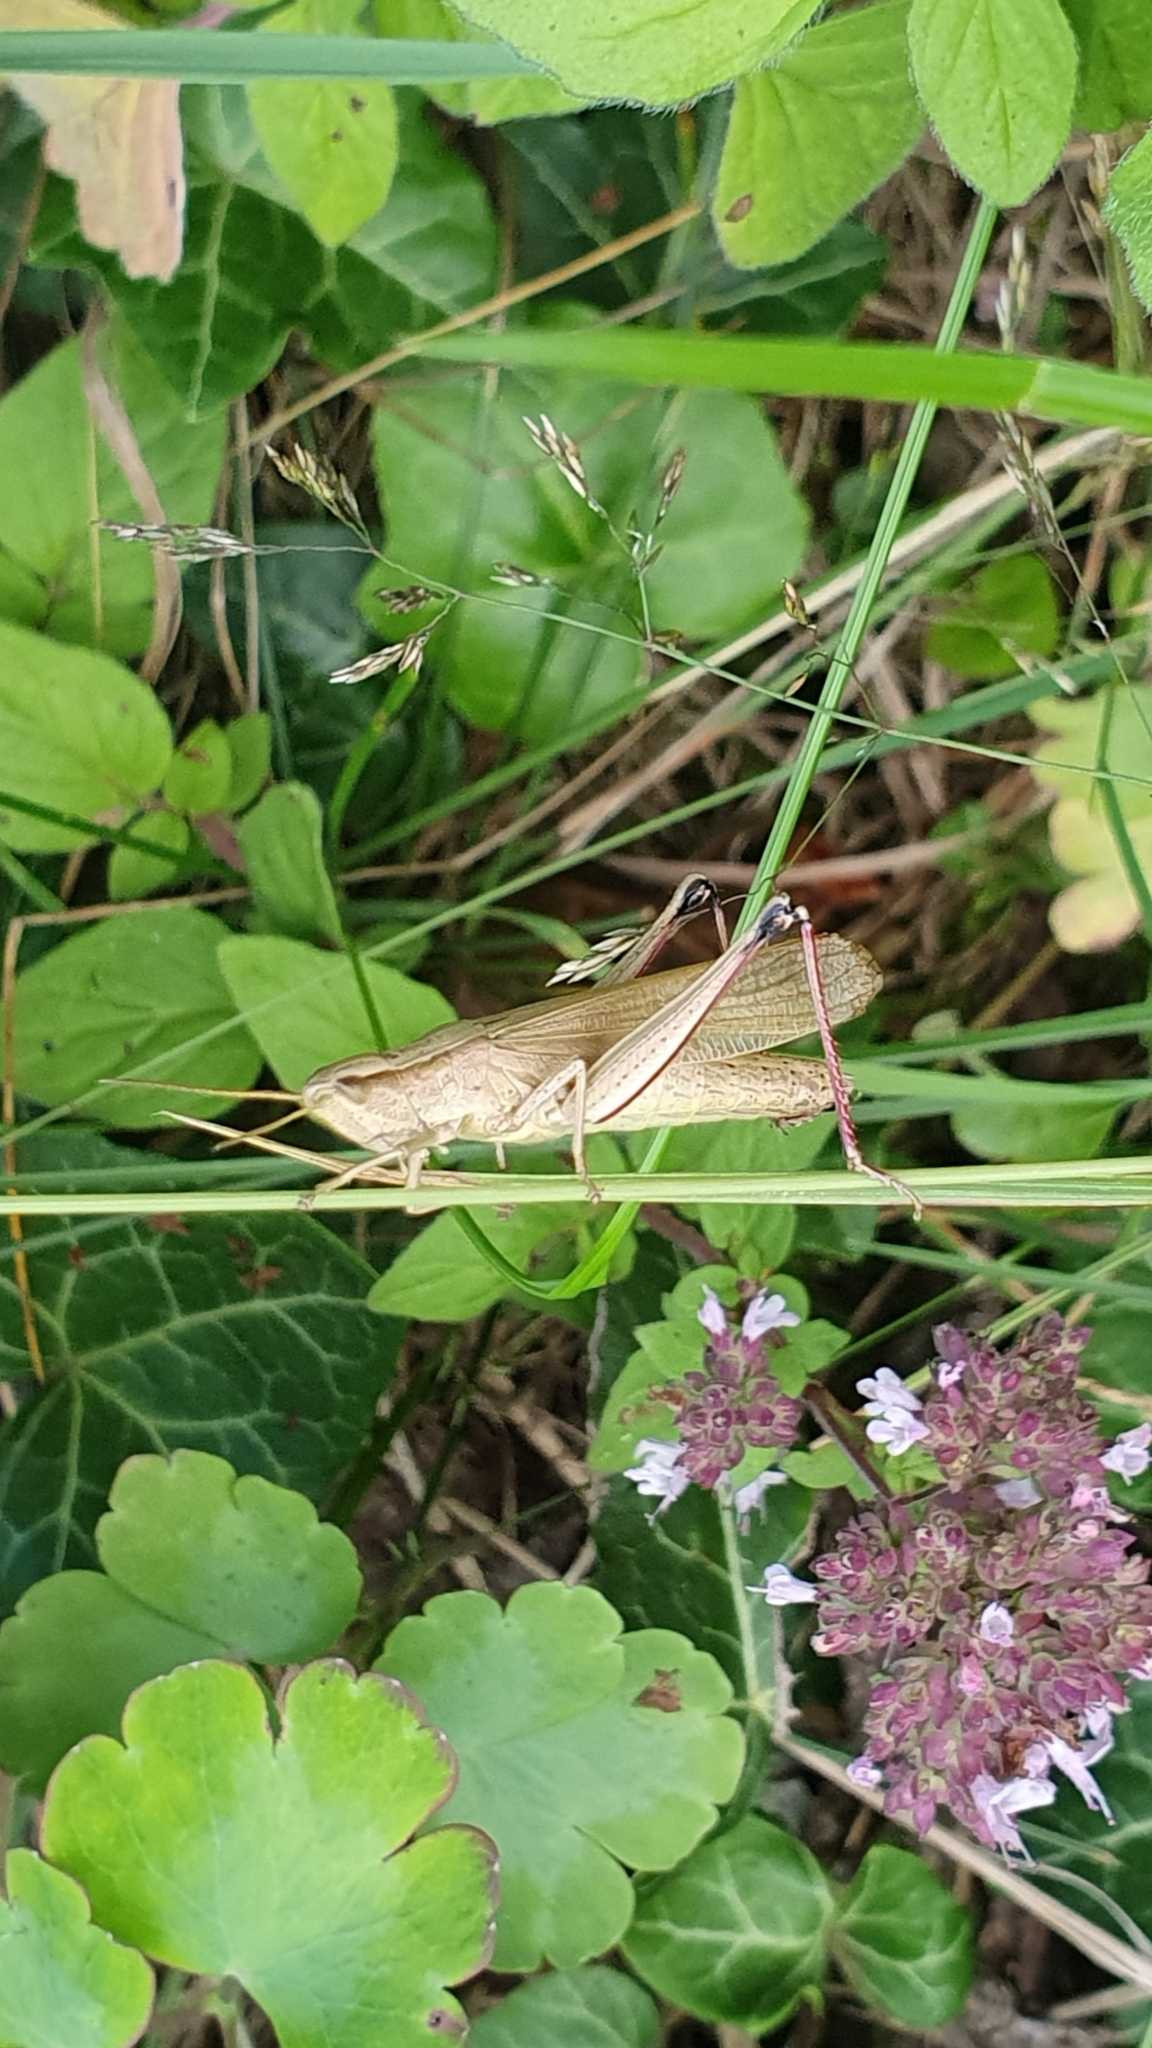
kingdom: Animalia
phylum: Arthropoda
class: Insecta
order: Orthoptera
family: Acrididae
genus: Chrysochraon
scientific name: Chrysochraon dispar
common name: Large gold grasshopper
